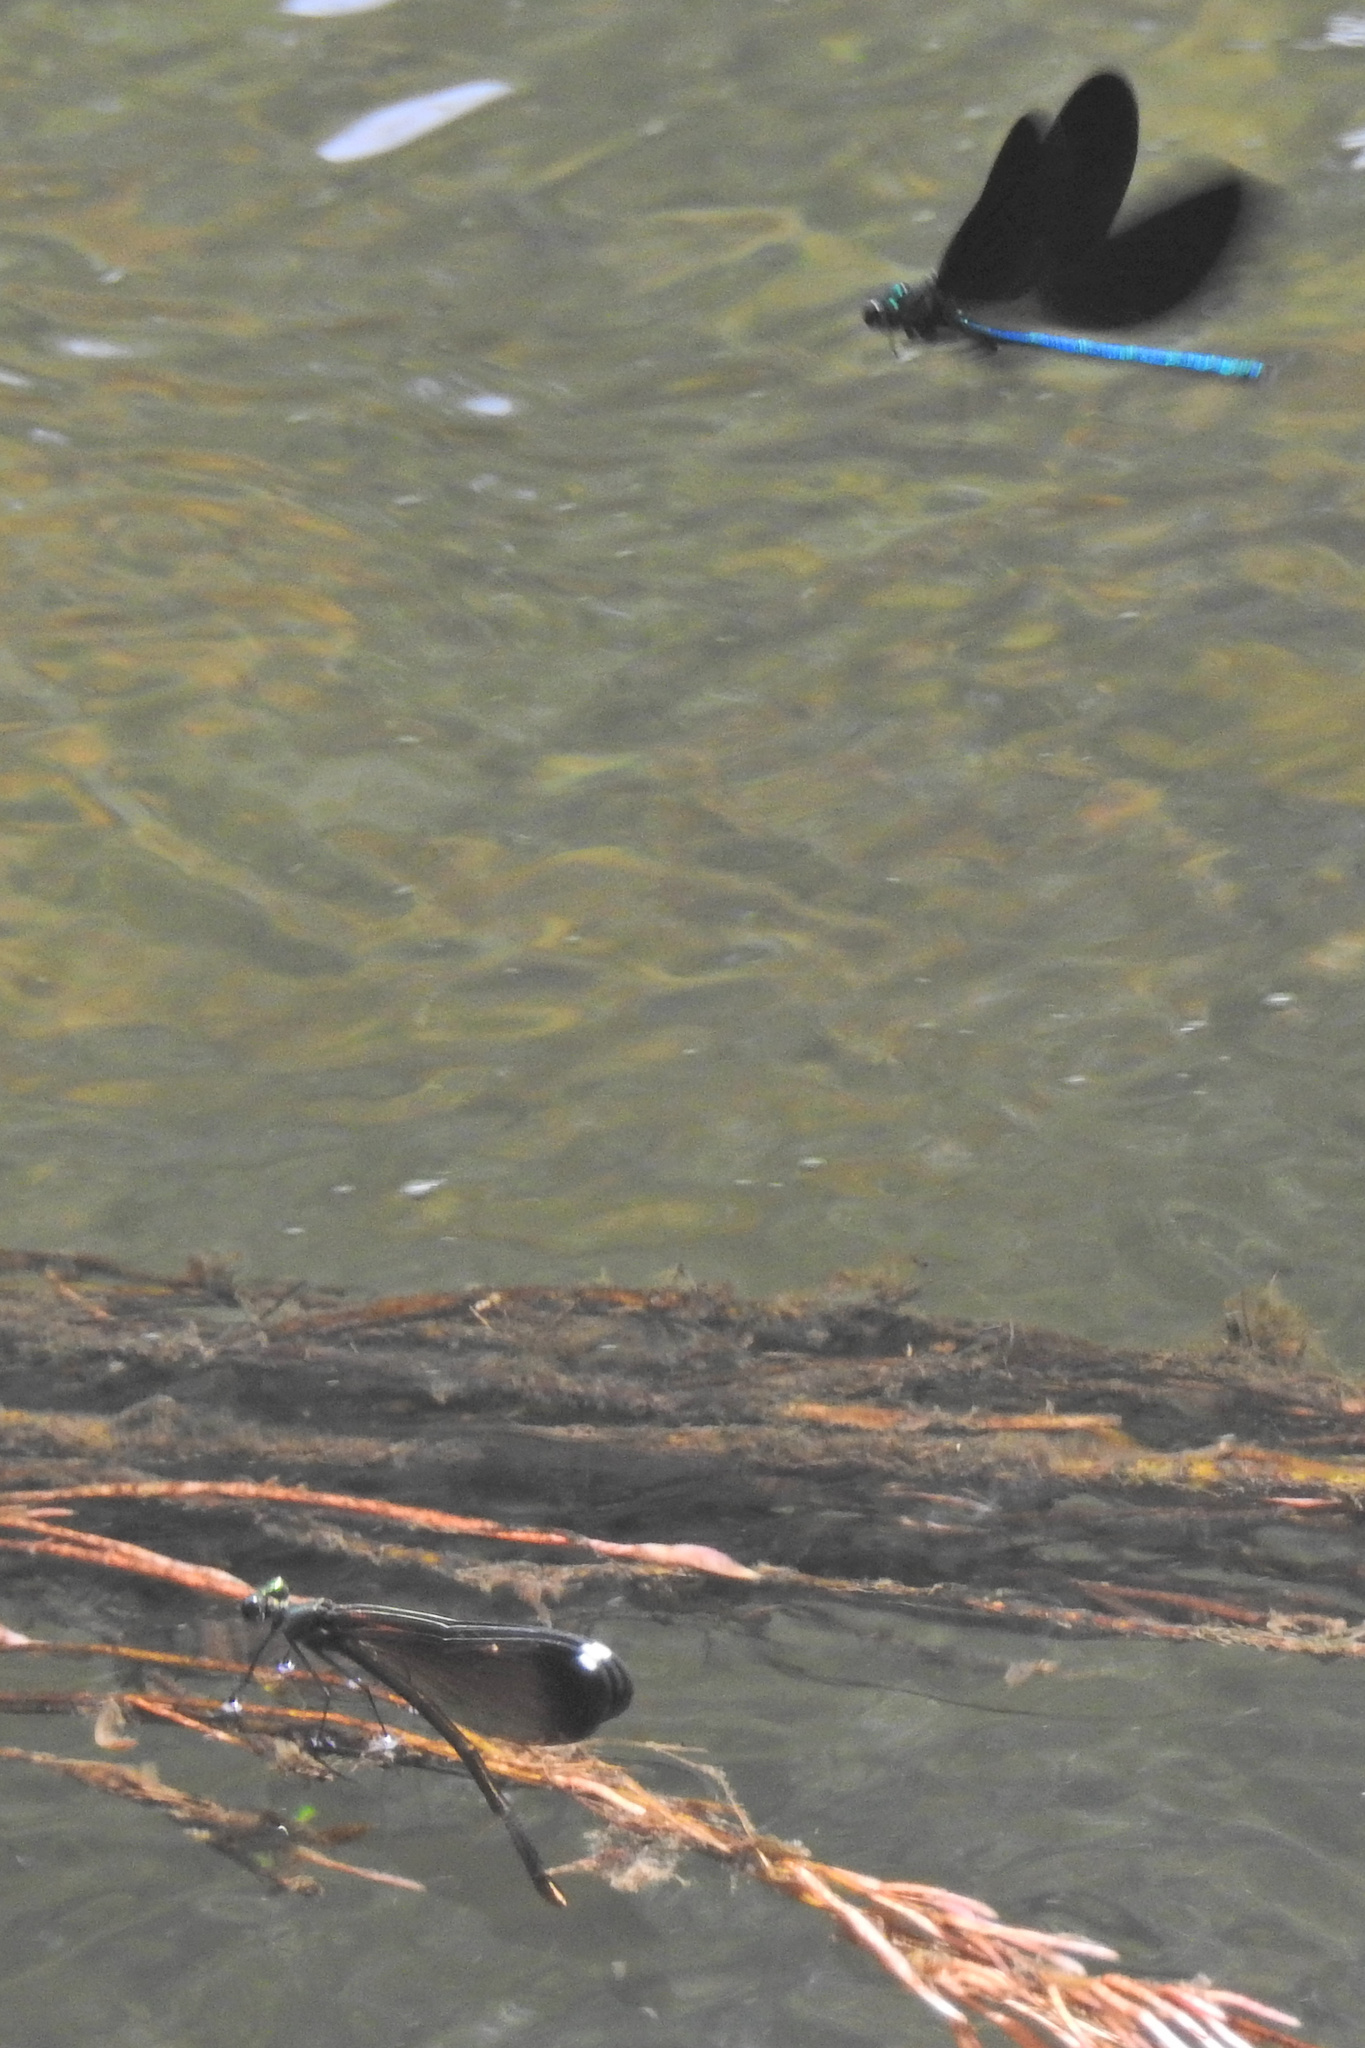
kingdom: Animalia
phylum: Arthropoda
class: Insecta
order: Odonata
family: Calopterygidae
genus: Calopteryx
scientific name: Calopteryx maculata
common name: Ebony jewelwing
